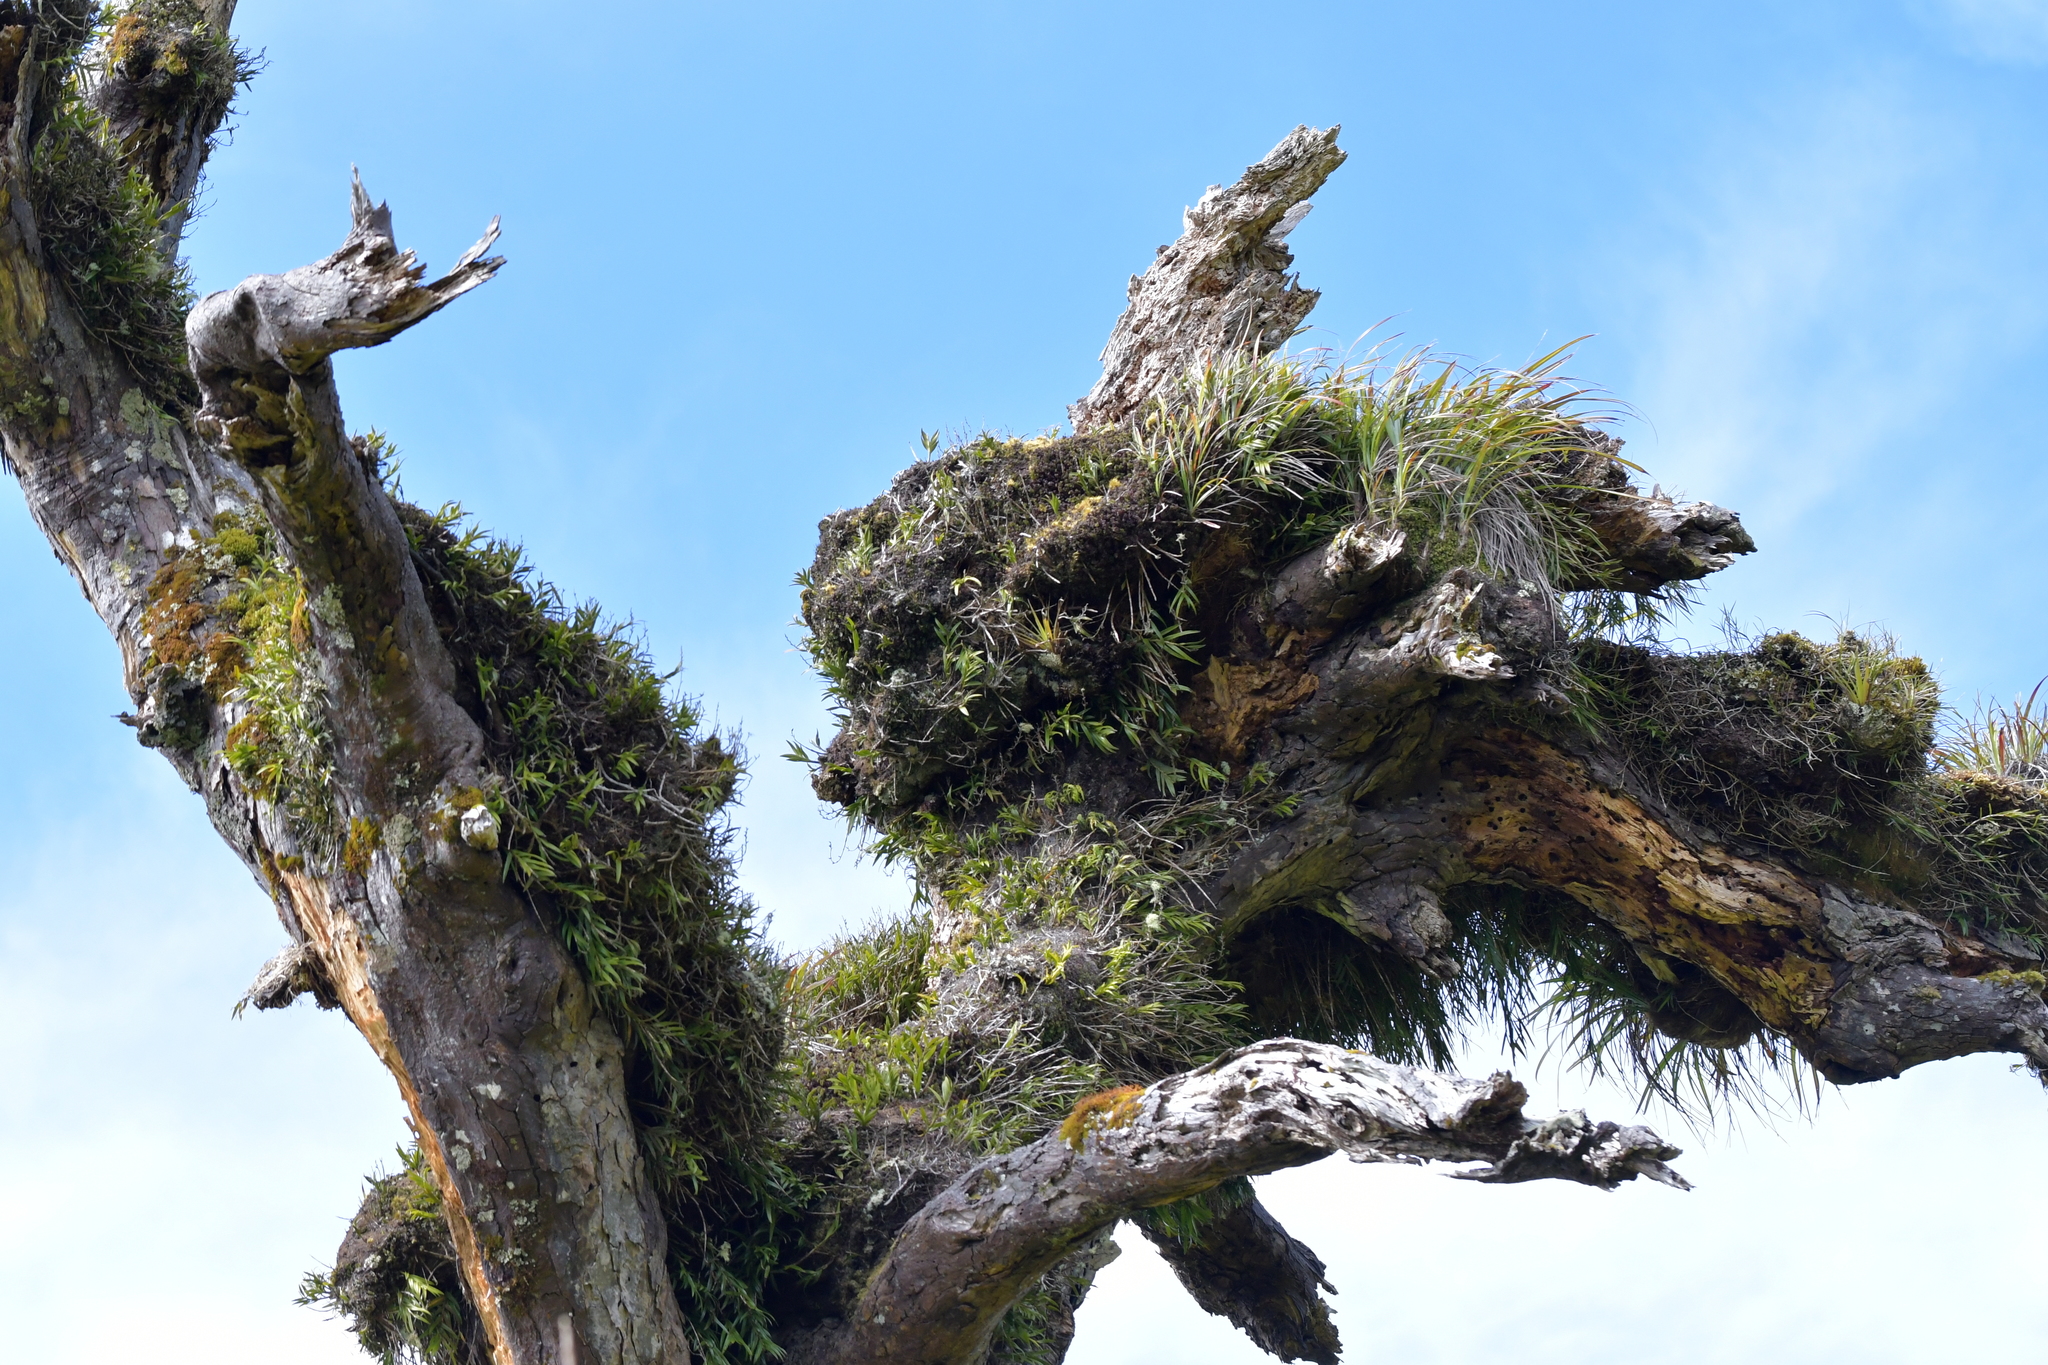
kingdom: Plantae
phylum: Tracheophyta
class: Liliopsida
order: Asparagales
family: Orchidaceae
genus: Earina
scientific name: Earina autumnalis
